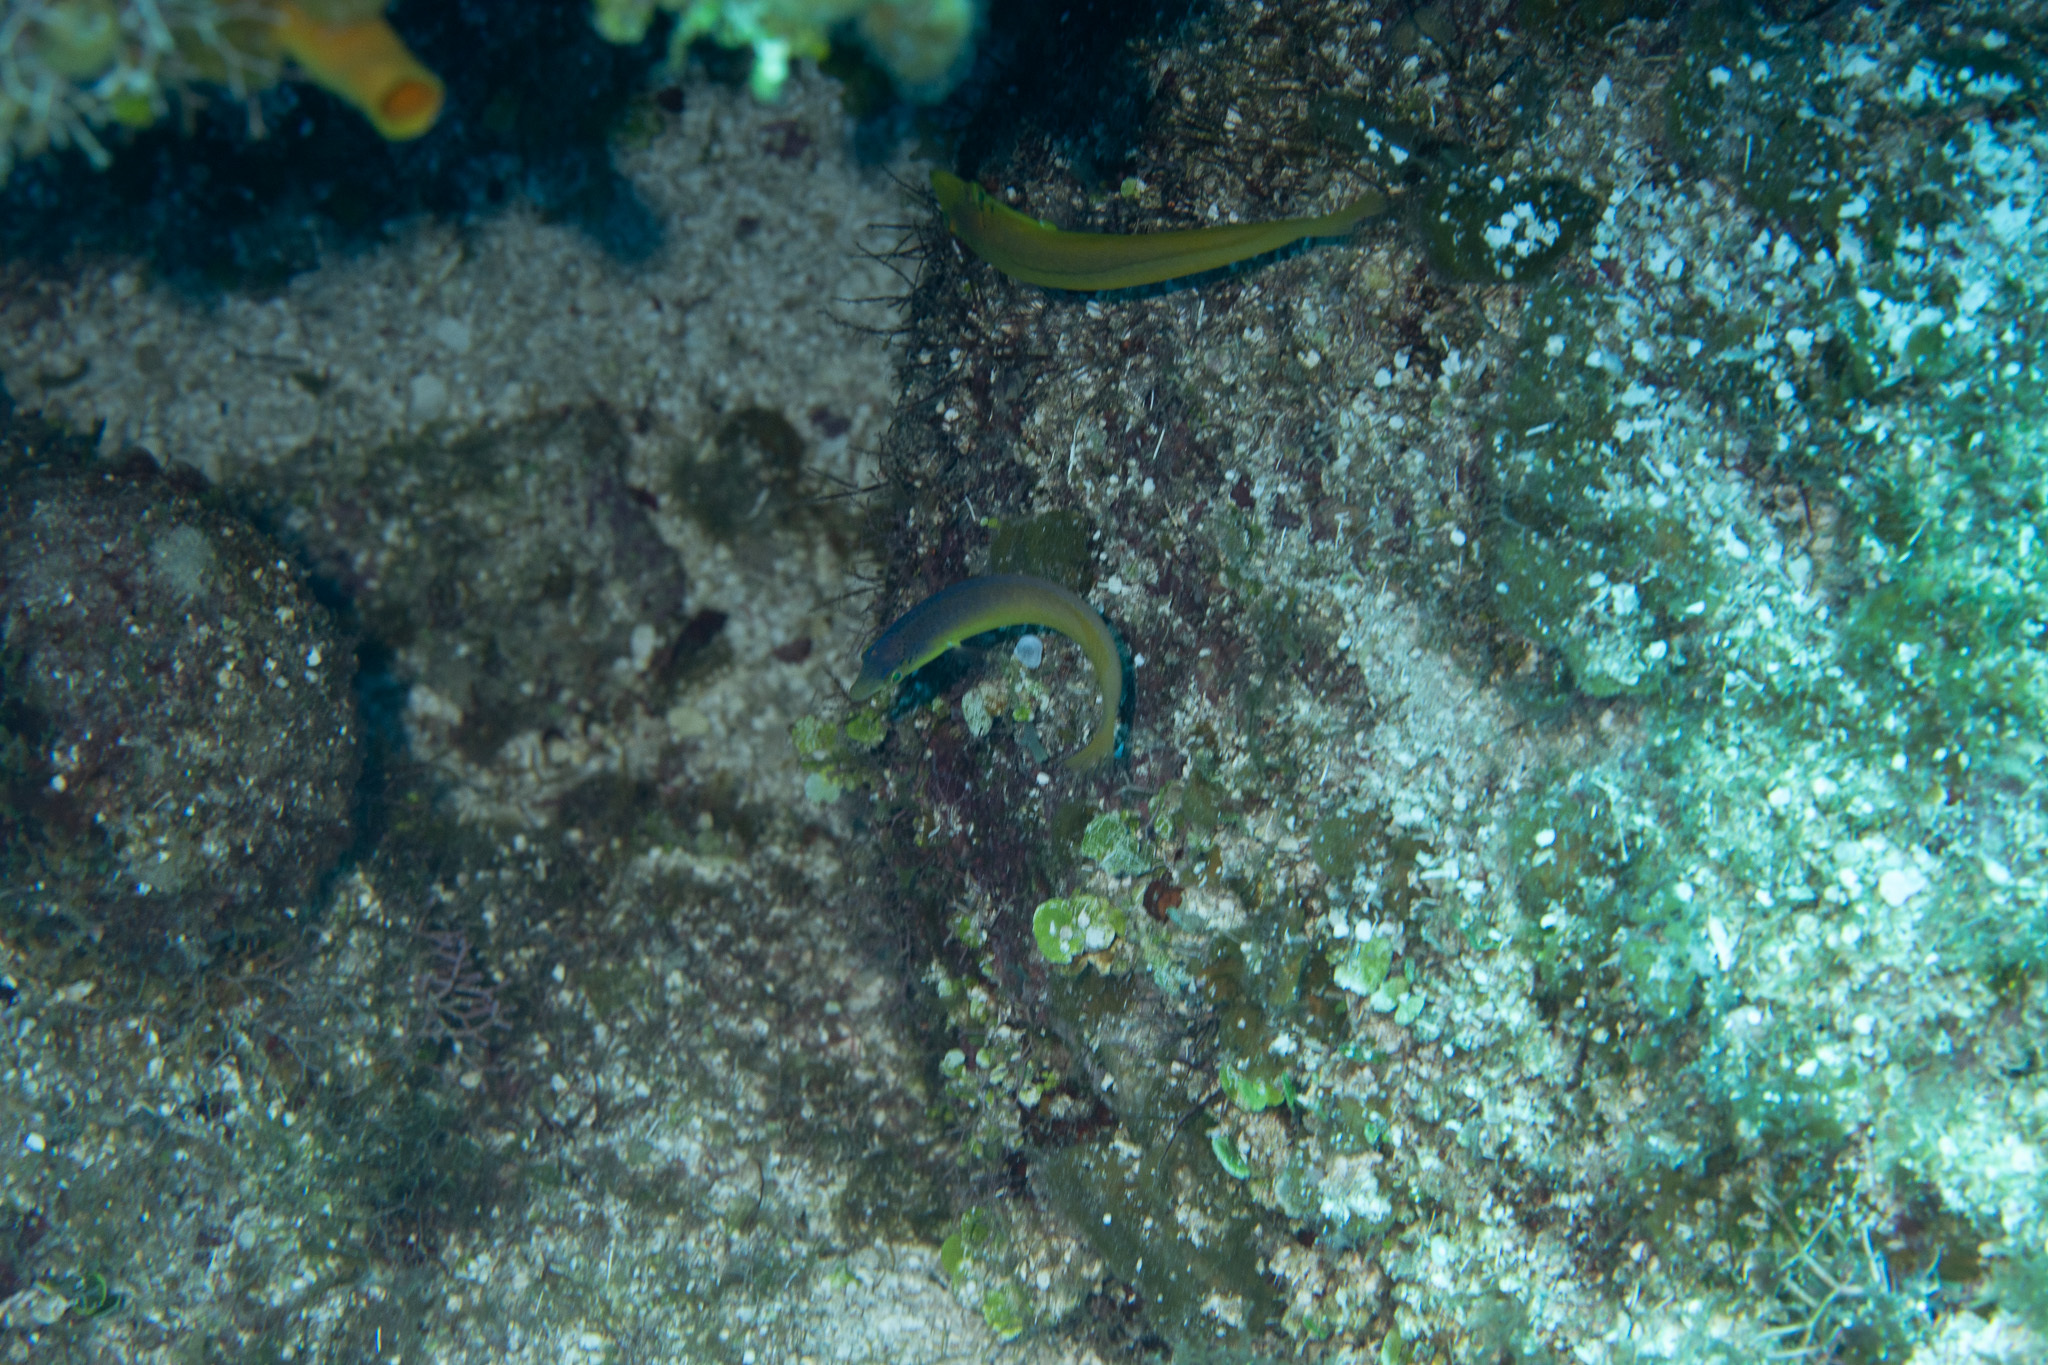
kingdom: Animalia
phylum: Chordata
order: Perciformes
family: Labridae
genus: Halichoeres
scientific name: Halichoeres garnoti
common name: Yellowhead wrasse
